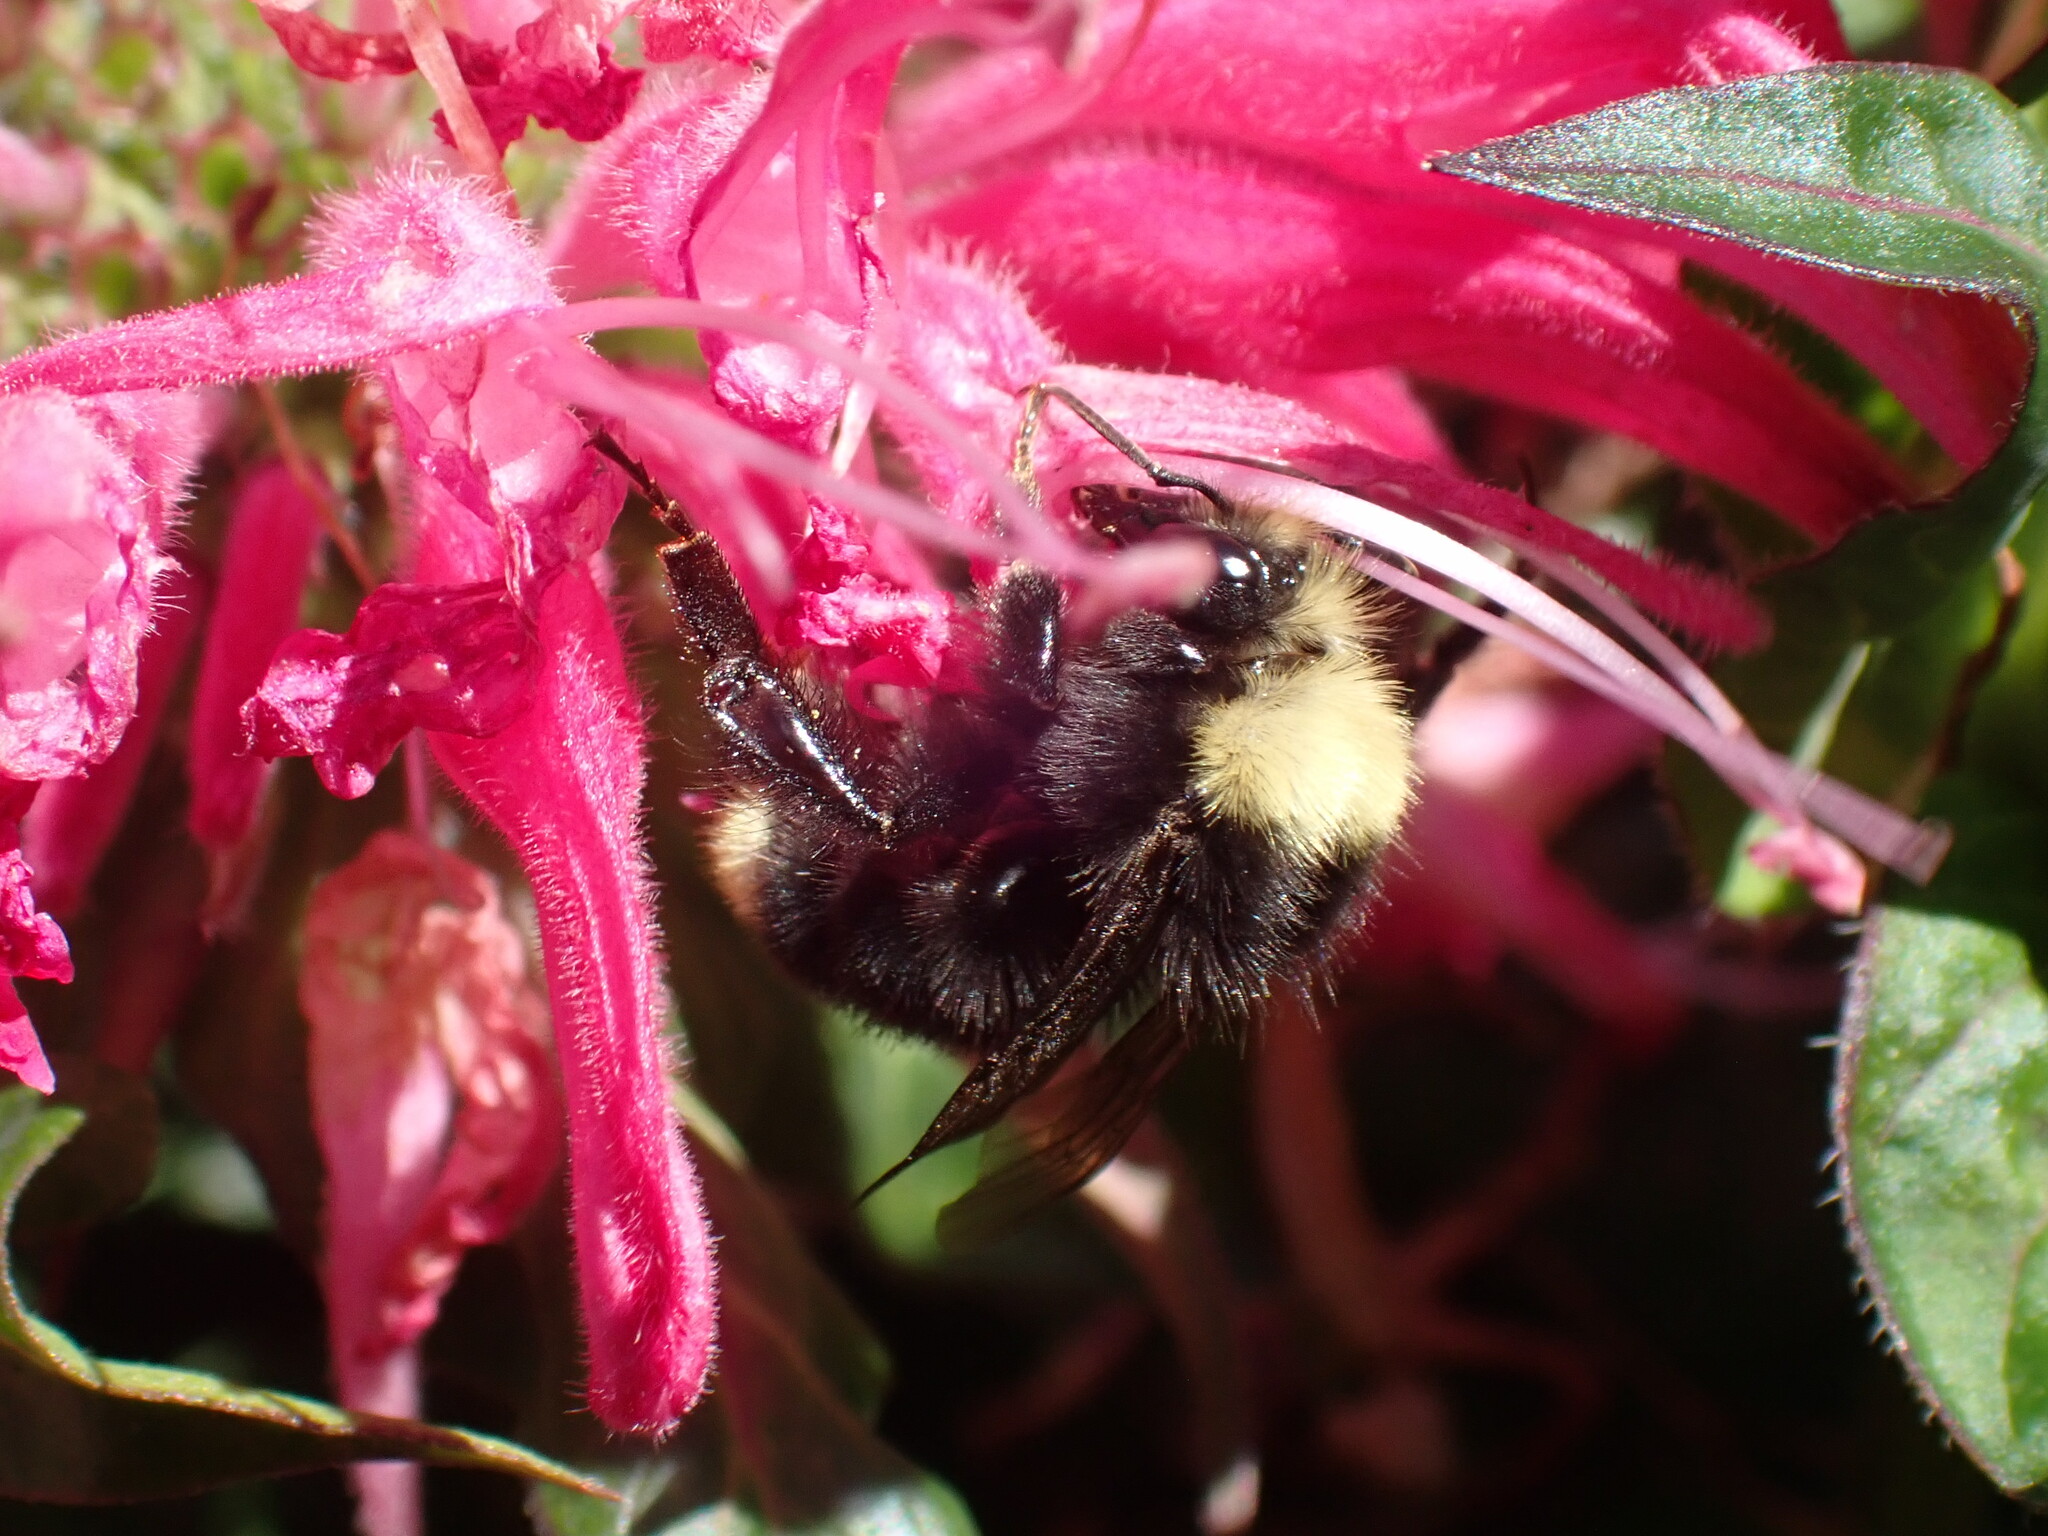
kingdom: Animalia
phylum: Arthropoda
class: Insecta
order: Hymenoptera
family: Apidae
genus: Bombus
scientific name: Bombus vosnesenskii
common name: Vosnesensky bumble bee
